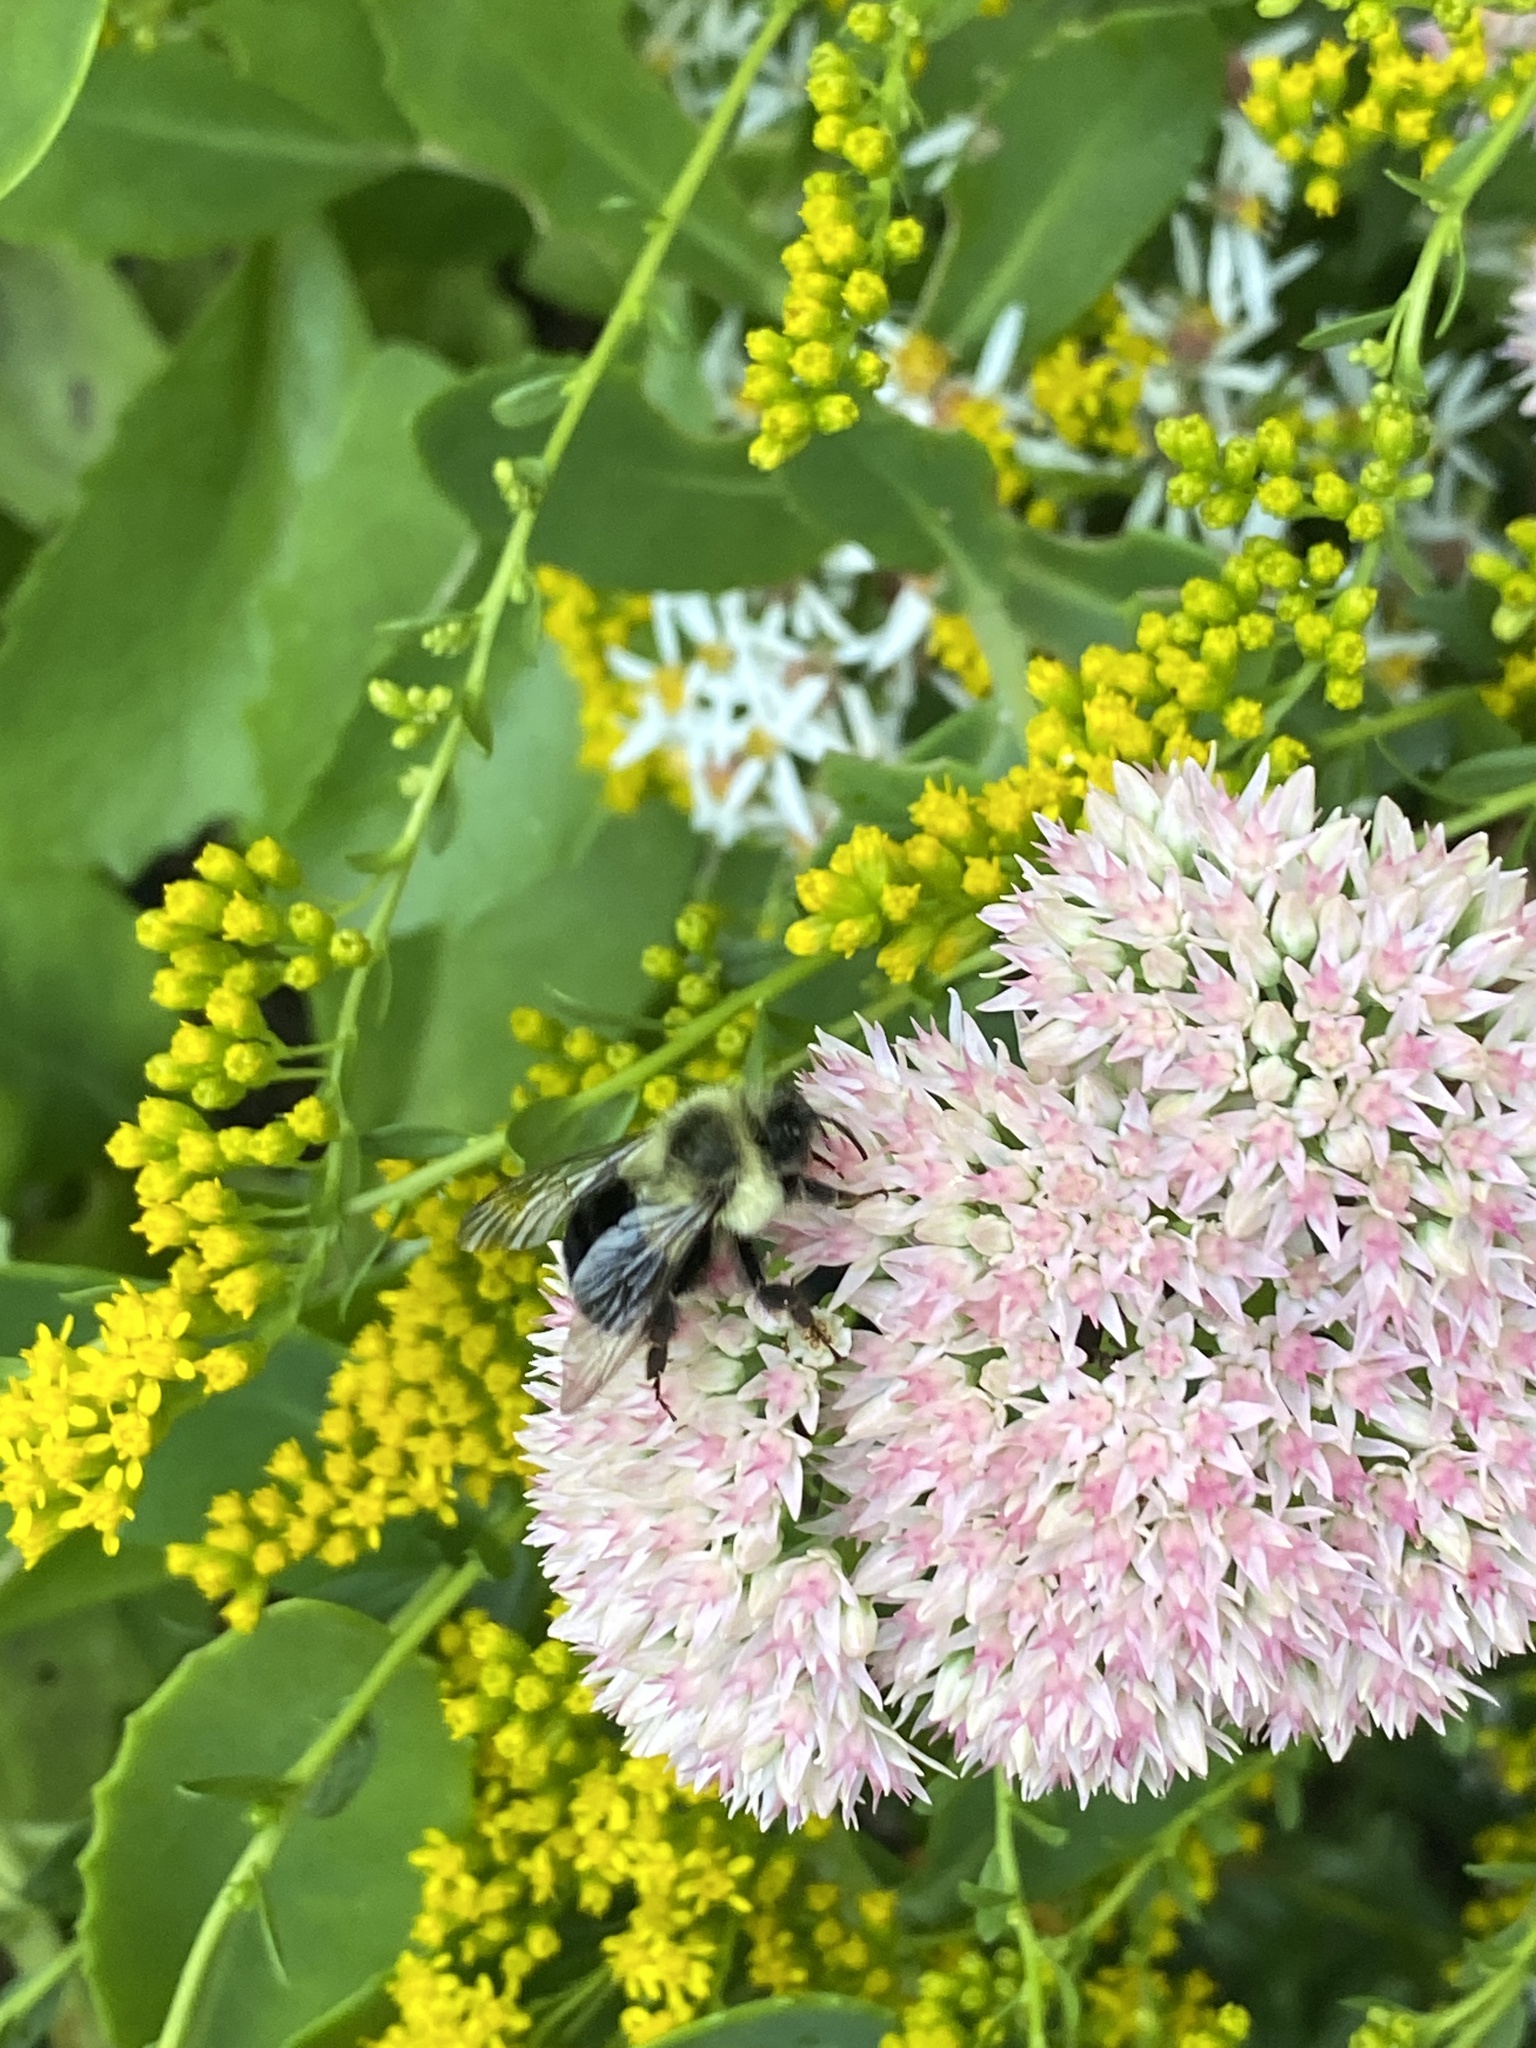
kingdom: Animalia
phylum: Arthropoda
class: Insecta
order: Hymenoptera
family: Apidae
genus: Bombus
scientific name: Bombus impatiens
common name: Common eastern bumble bee
